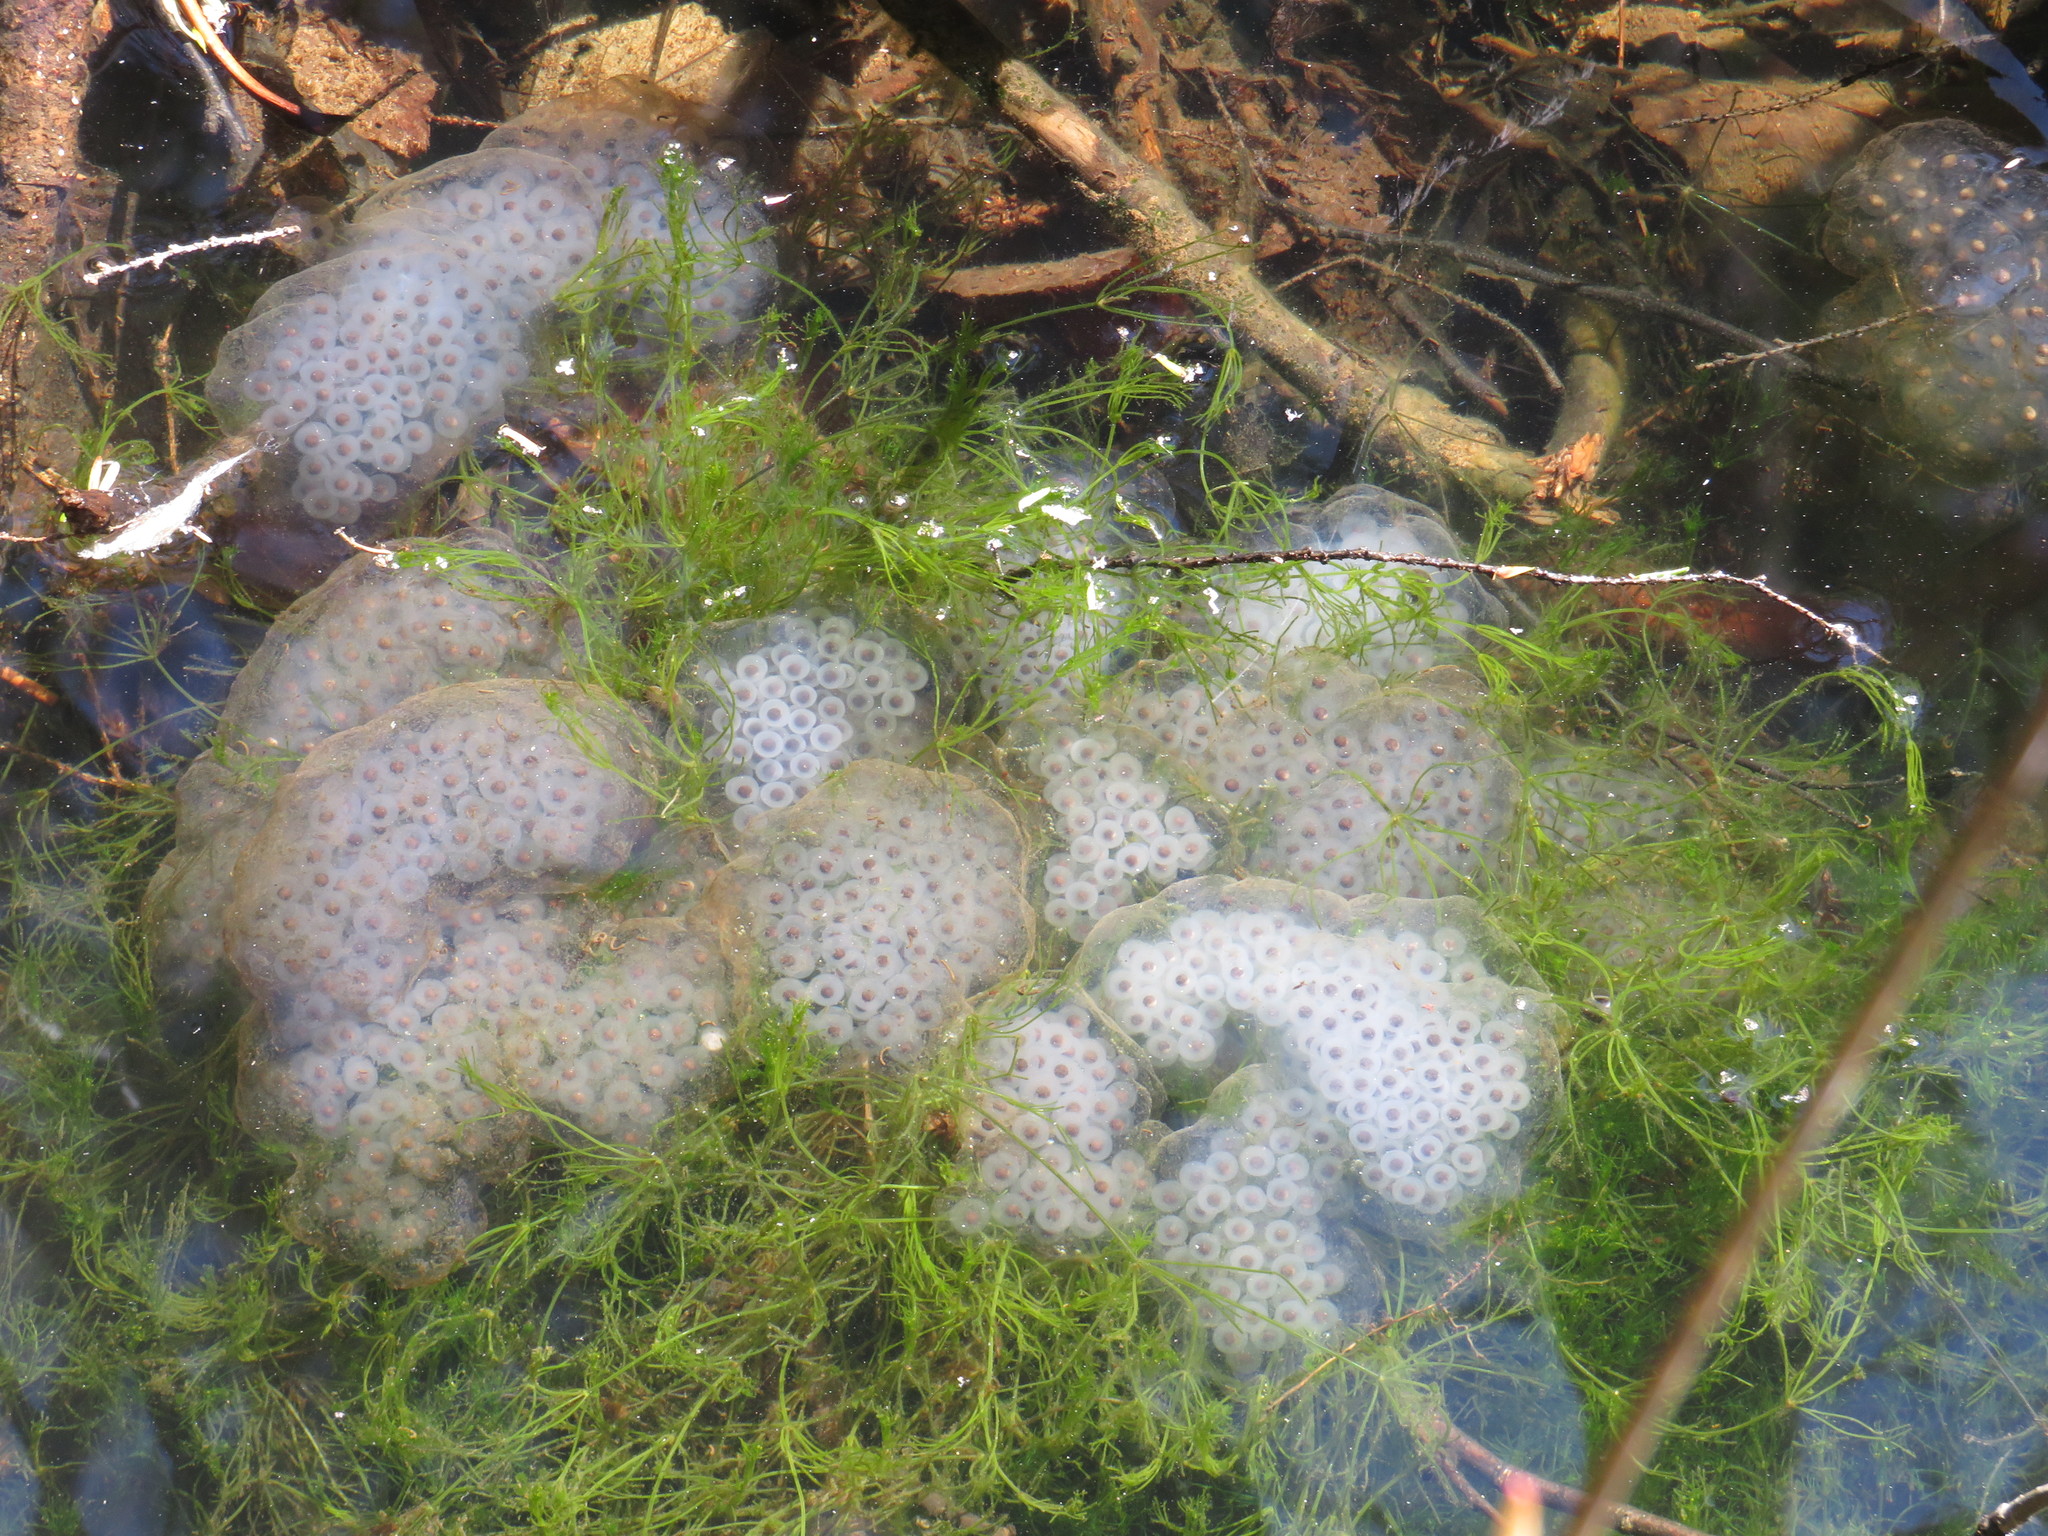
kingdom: Animalia
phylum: Chordata
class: Amphibia
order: Caudata
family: Ambystomatidae
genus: Ambystoma
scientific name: Ambystoma maculatum
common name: Spotted salamander
